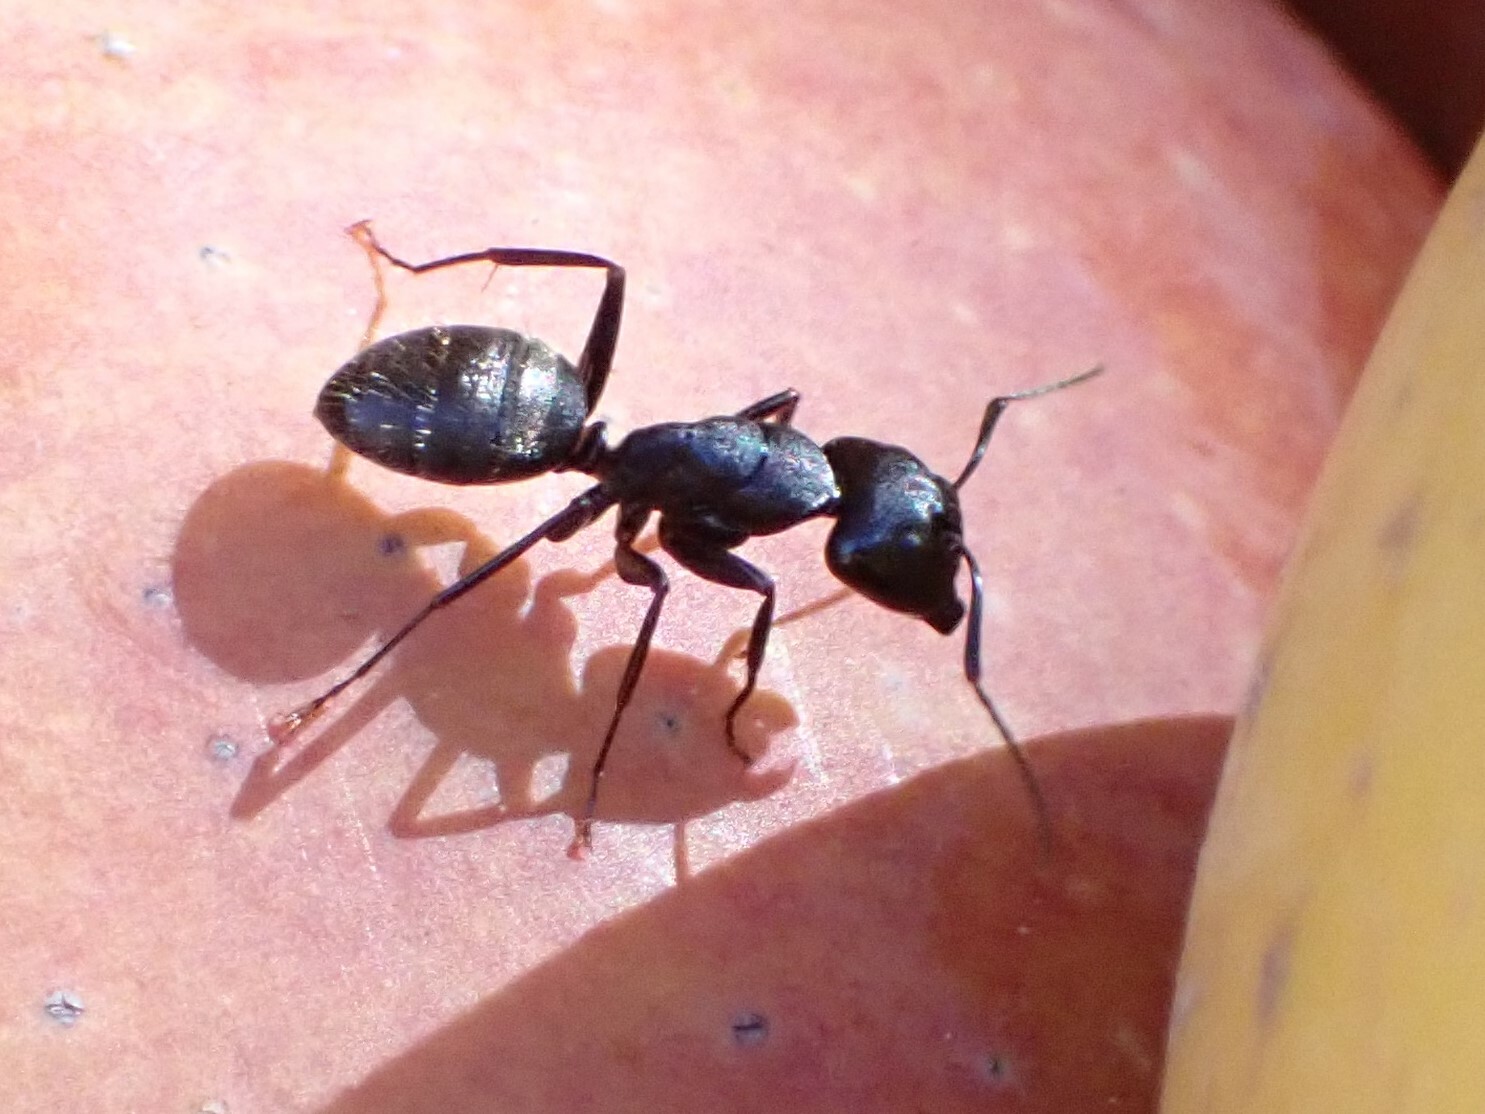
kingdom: Animalia
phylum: Arthropoda
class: Insecta
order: Hymenoptera
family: Formicidae
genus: Camponotus
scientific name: Camponotus pennsylvanicus
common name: Black carpenter ant
